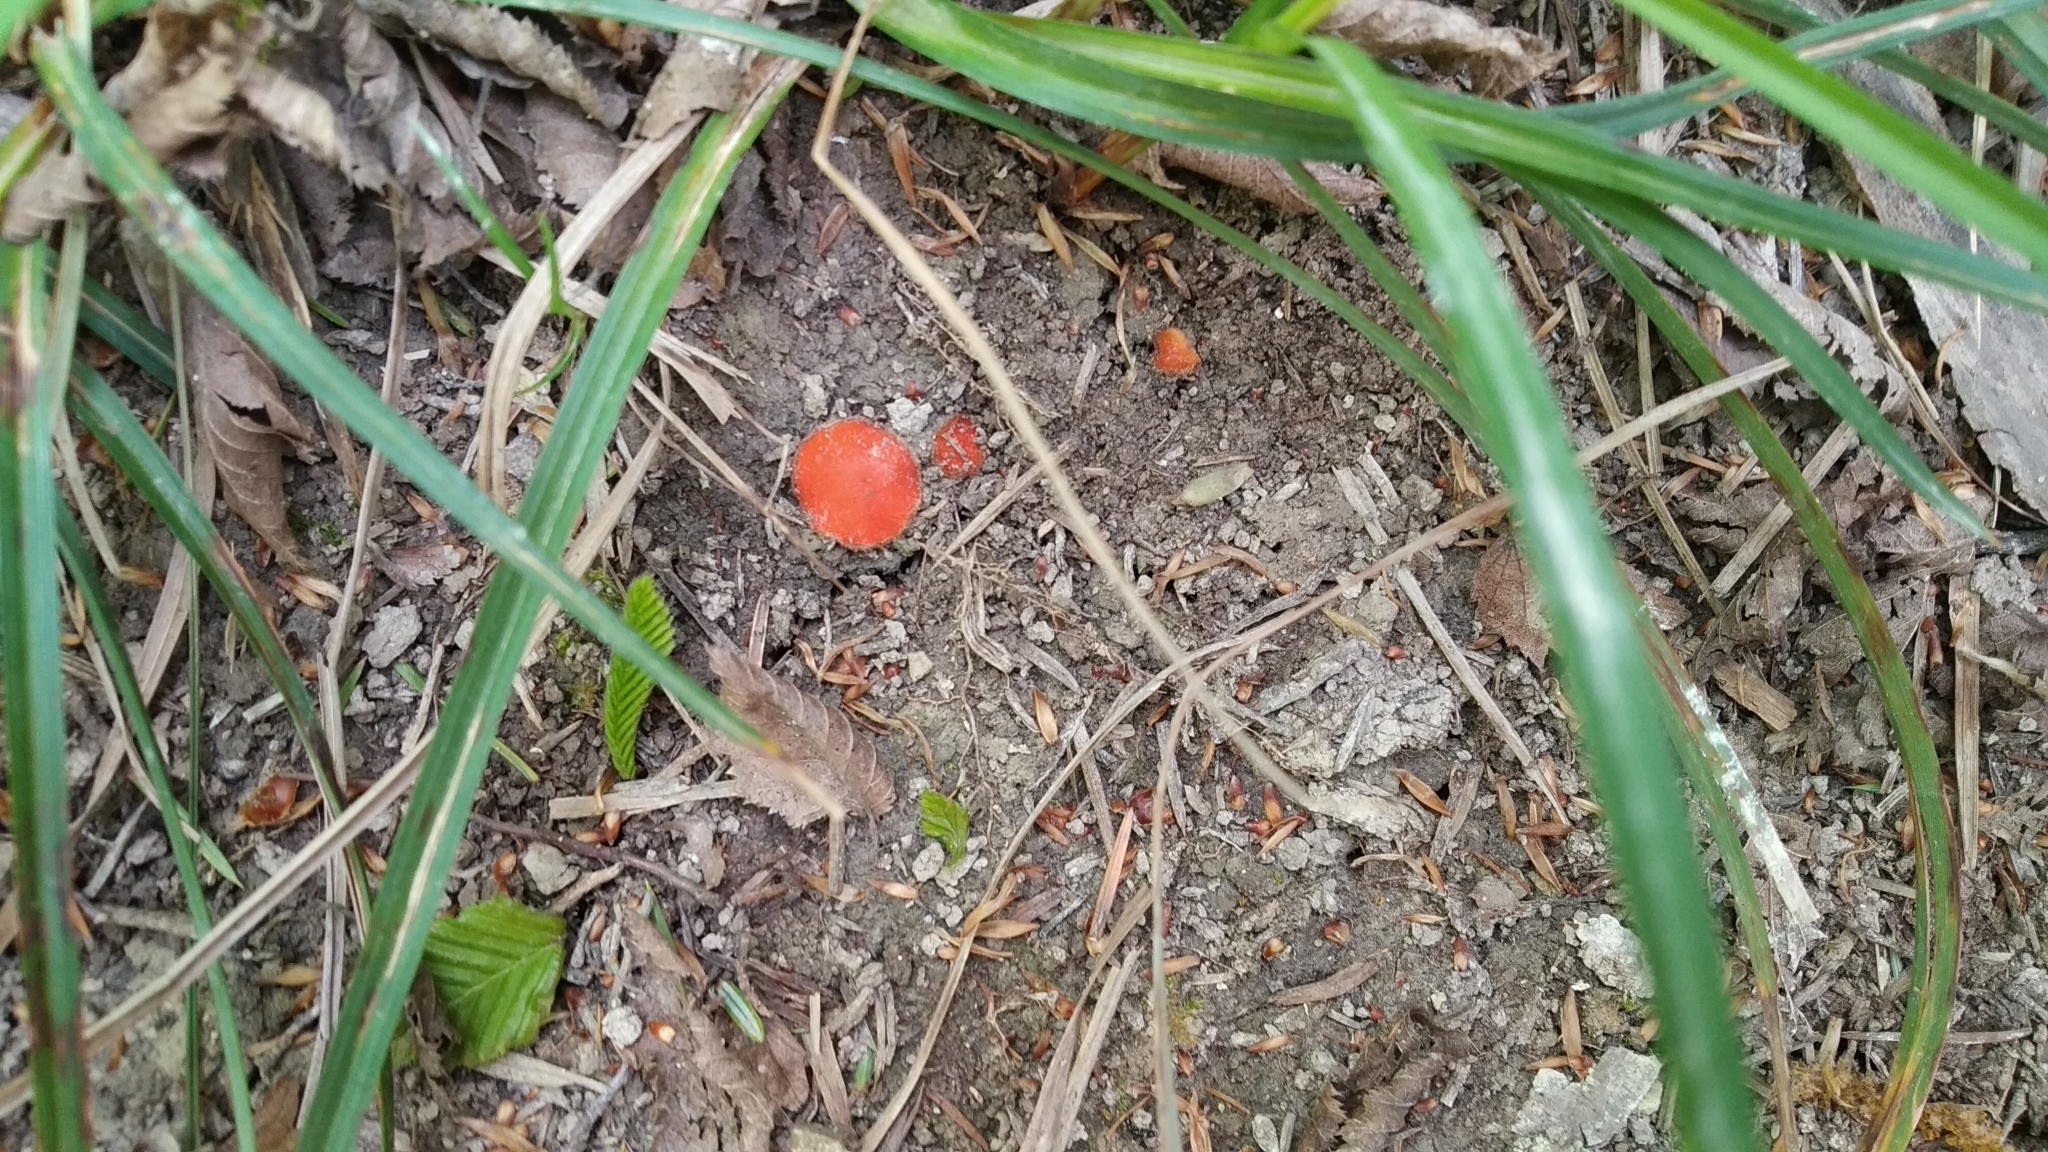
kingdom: Fungi
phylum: Ascomycota
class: Pezizomycetes
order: Pezizales
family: Pyronemataceae
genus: Scutellinia
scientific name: Scutellinia
